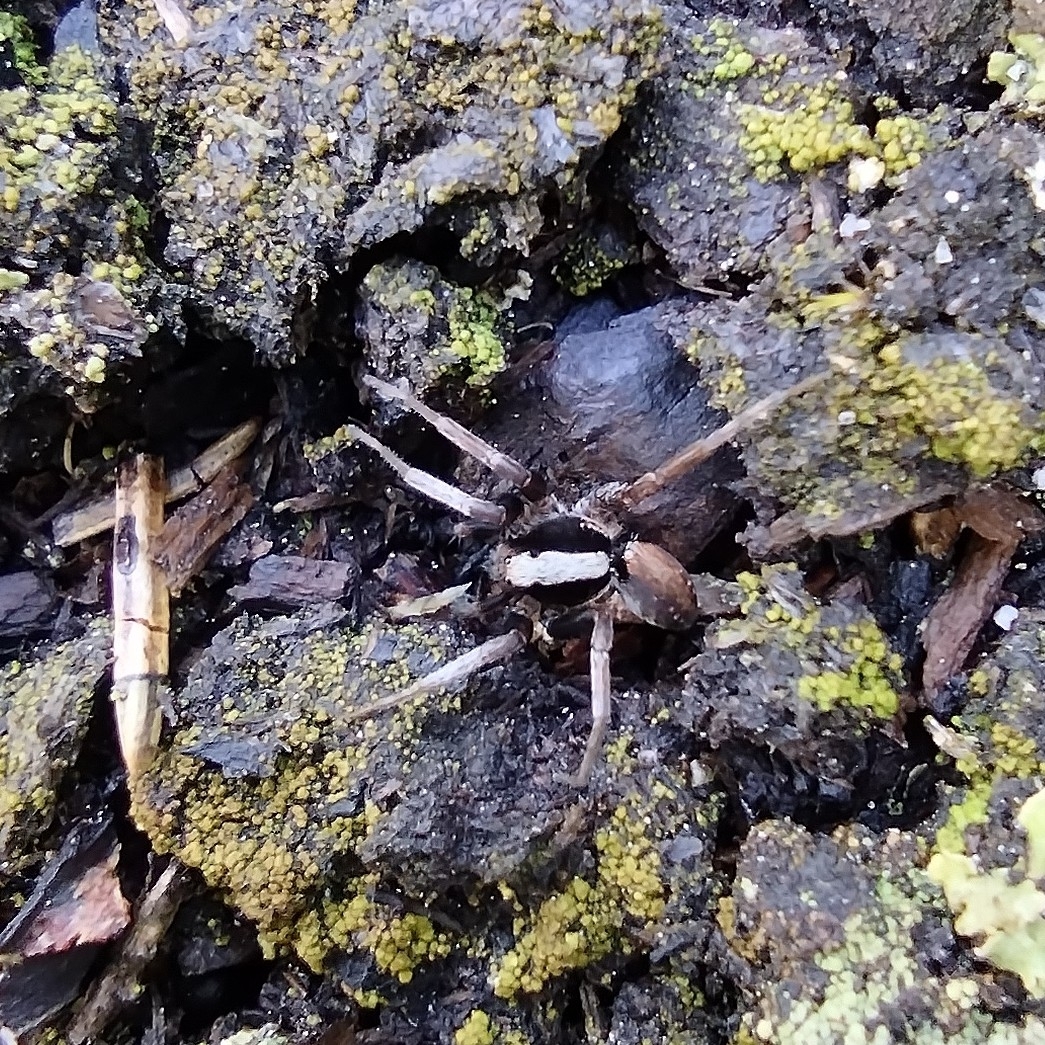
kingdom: Animalia
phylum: Arthropoda
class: Arachnida
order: Araneae
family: Lycosidae
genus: Xerolycosa
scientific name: Xerolycosa nemoralis
